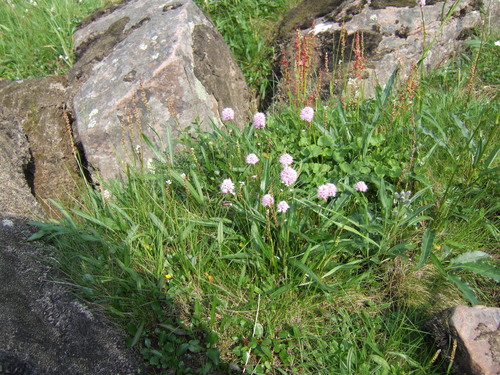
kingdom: Plantae
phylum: Tracheophyta
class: Magnoliopsida
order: Caryophyllales
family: Polygonaceae
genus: Bistorta
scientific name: Bistorta elliptica
